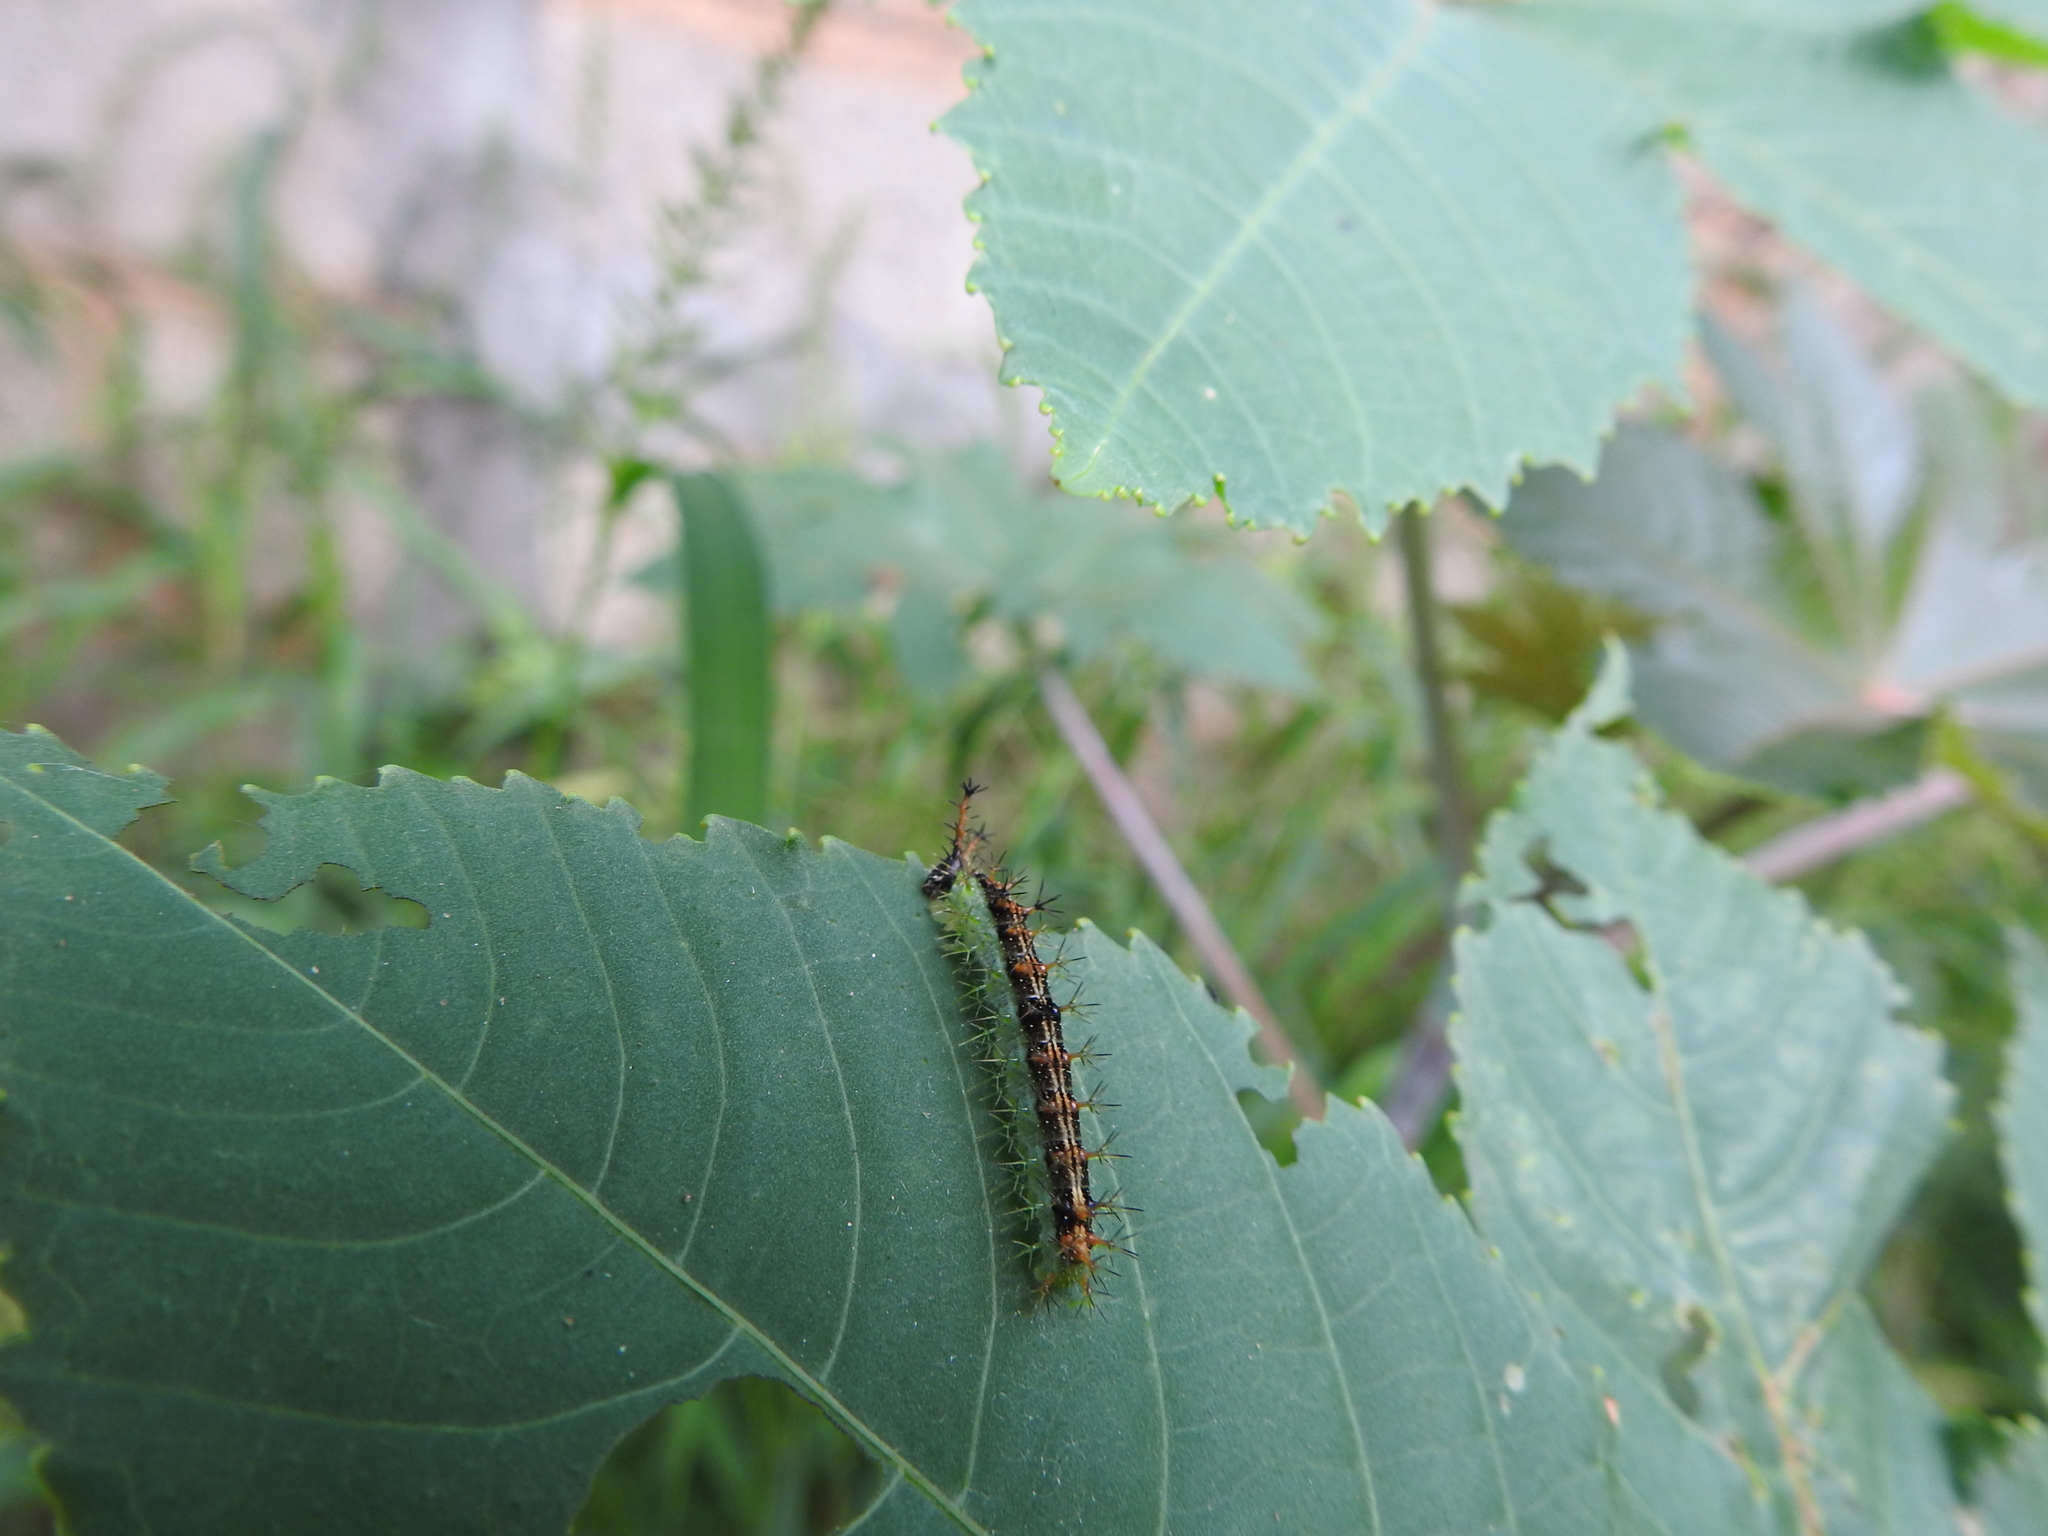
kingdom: Animalia
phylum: Arthropoda
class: Insecta
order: Lepidoptera
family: Nymphalidae
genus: Ariadne
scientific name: Ariadne merione
